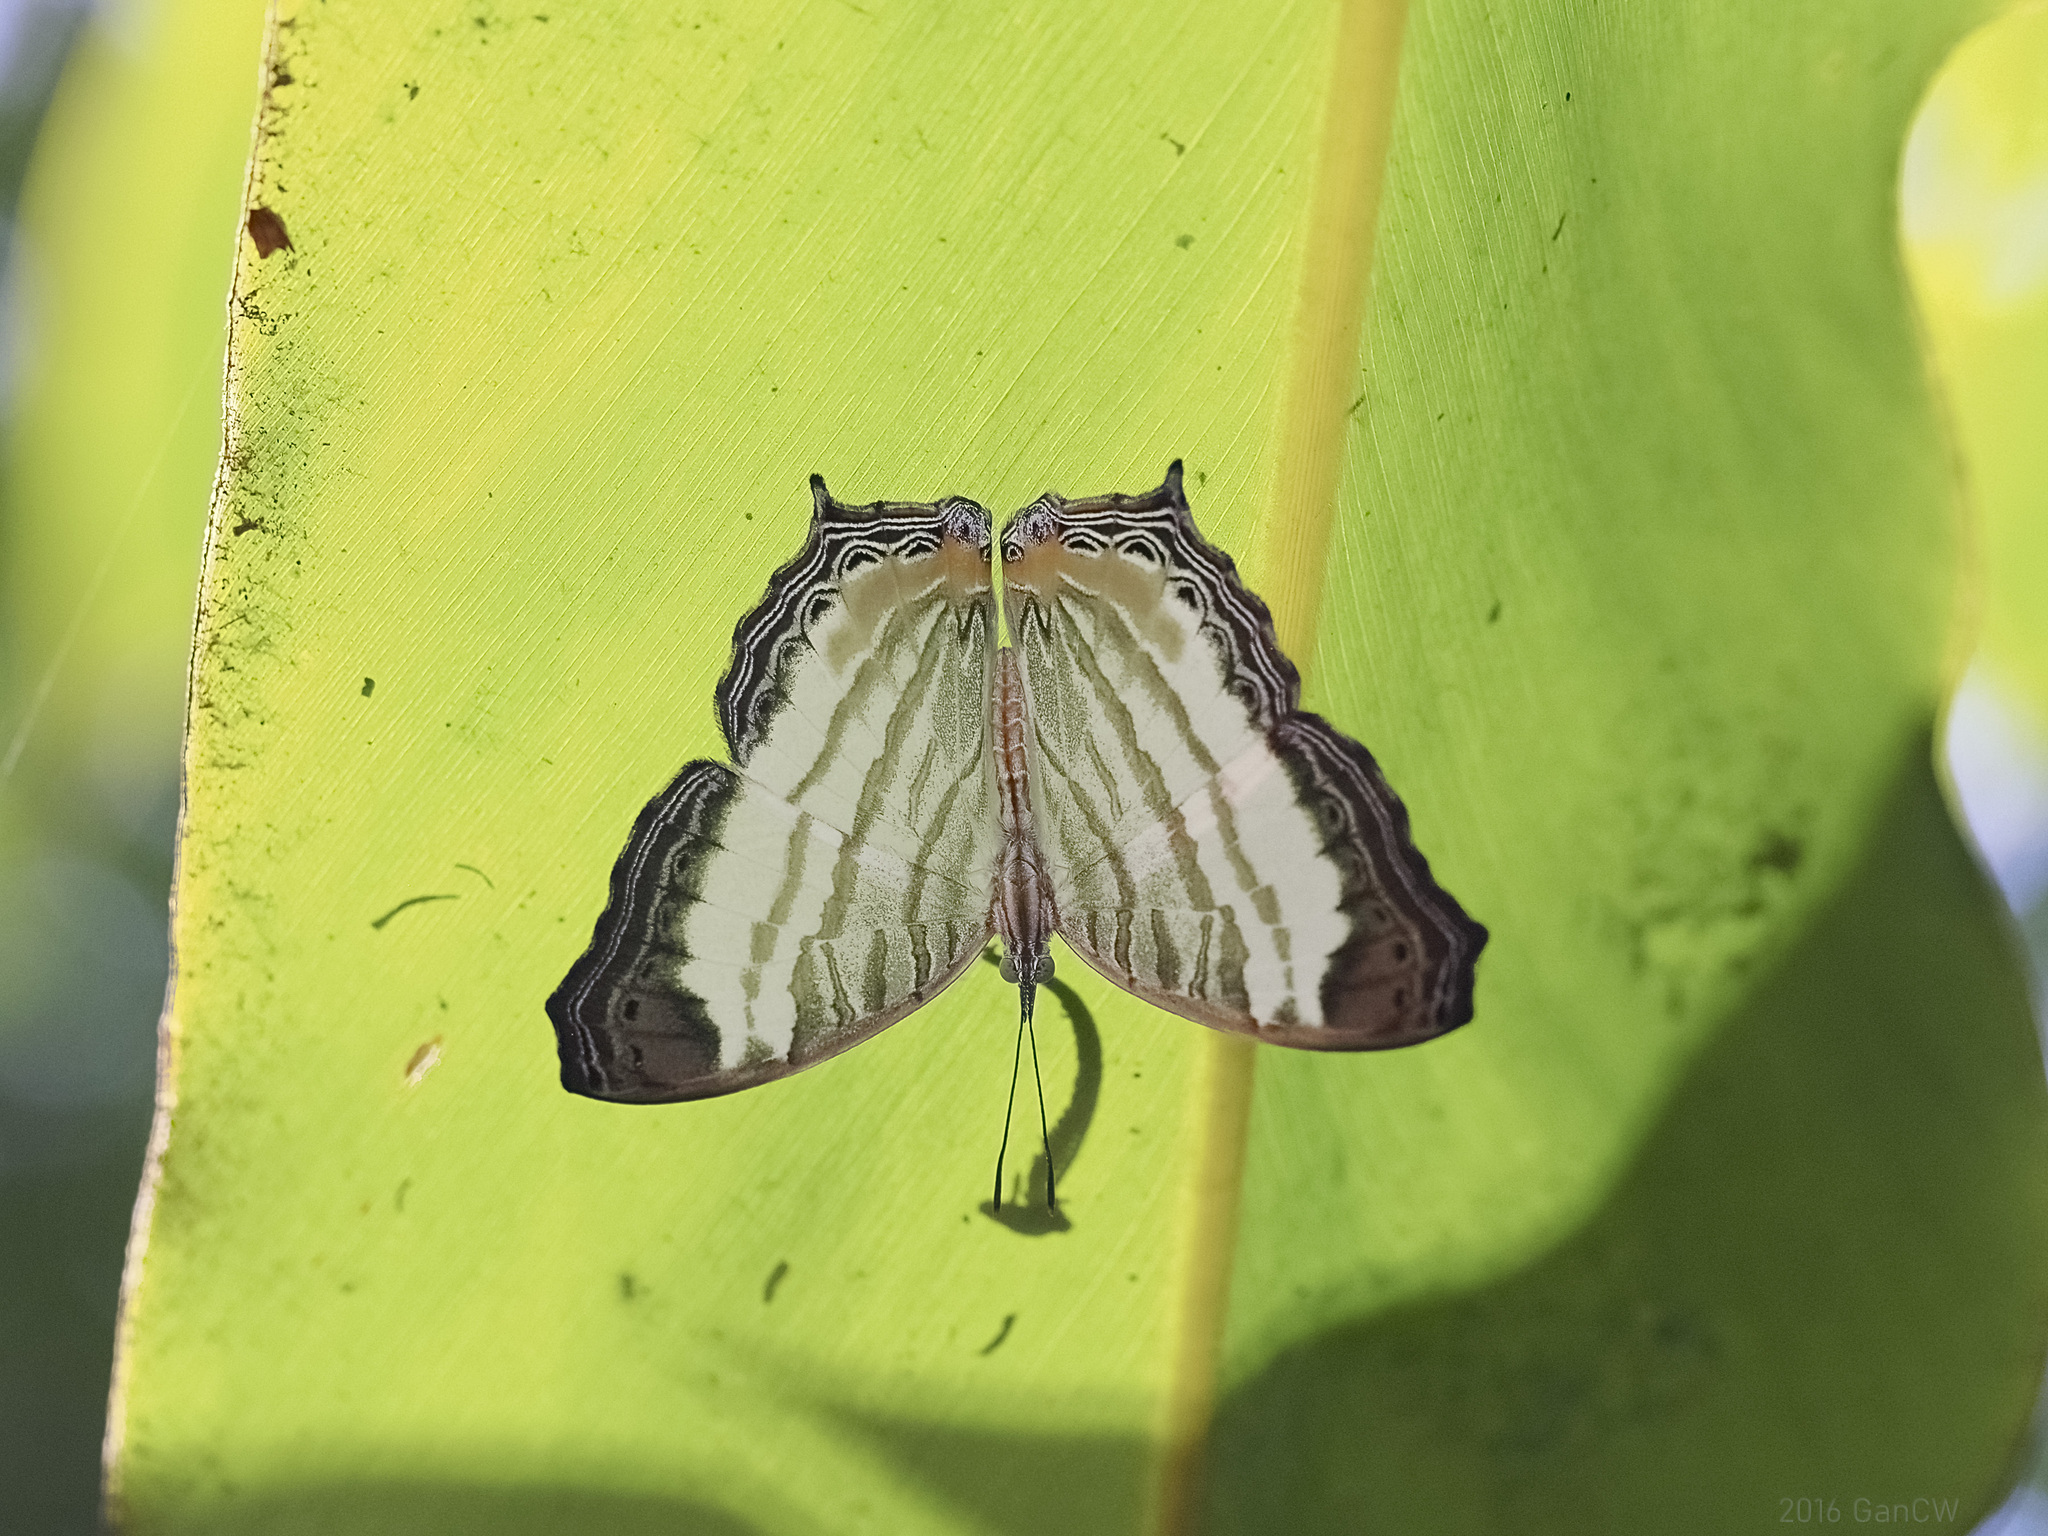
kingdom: Animalia
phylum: Arthropoda
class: Insecta
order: Lepidoptera
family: Nymphalidae
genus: Cyrestis
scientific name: Cyrestis themire
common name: Little mapwing
